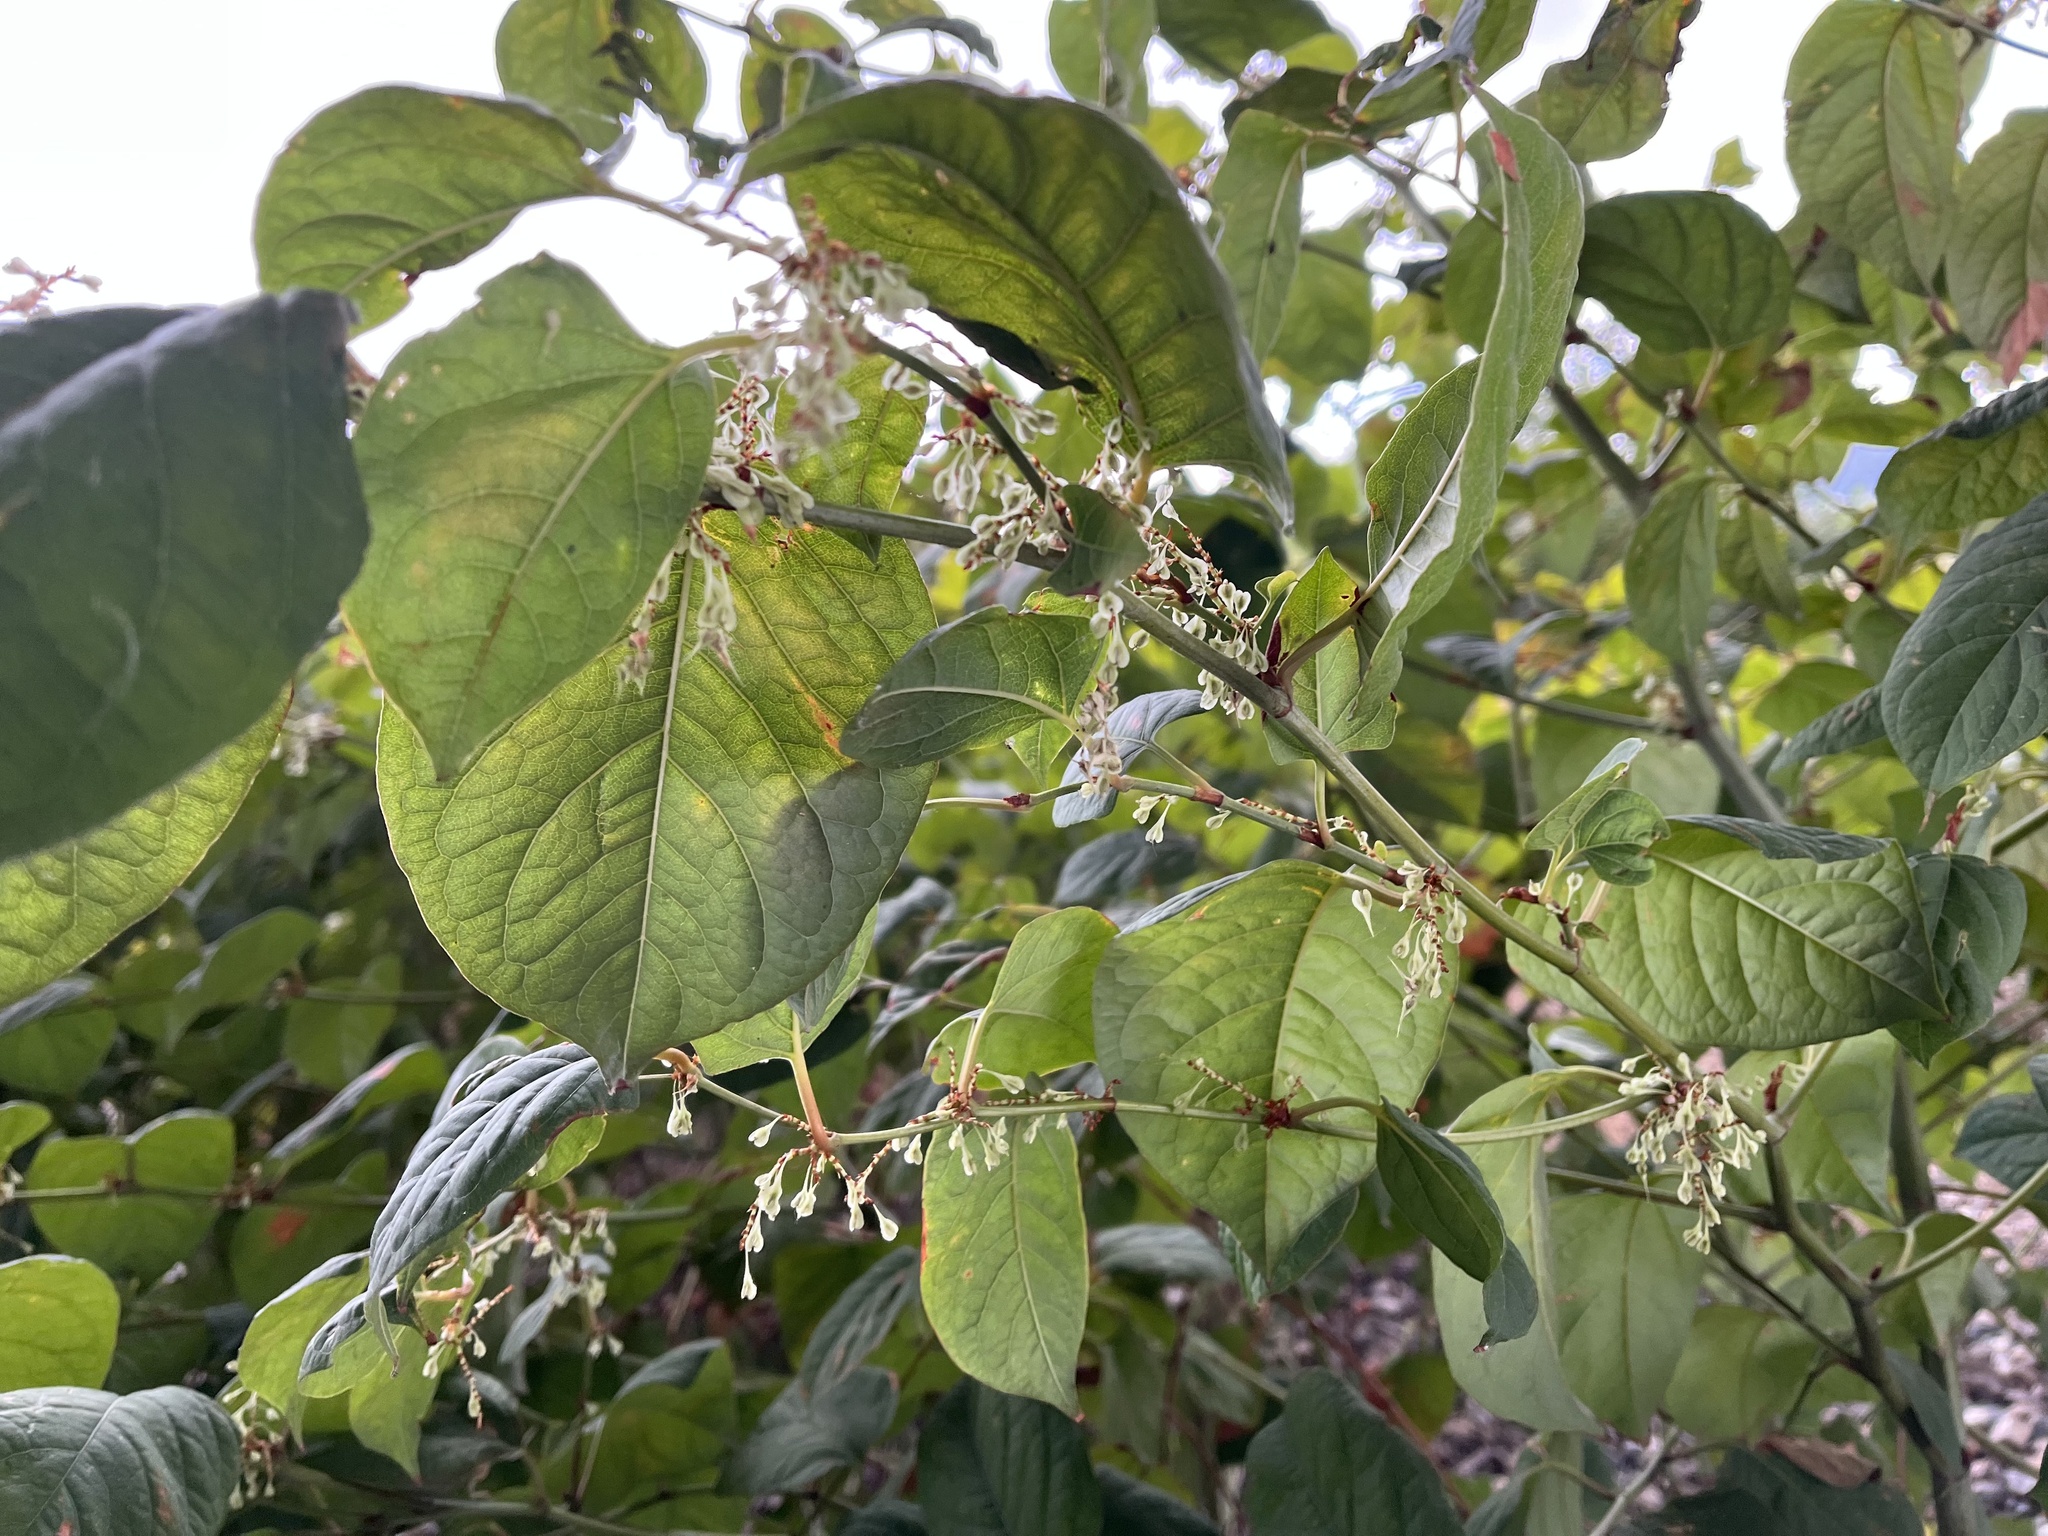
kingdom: Plantae
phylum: Tracheophyta
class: Magnoliopsida
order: Caryophyllales
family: Polygonaceae
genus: Reynoutria
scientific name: Reynoutria japonica
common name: Japanese knotweed
